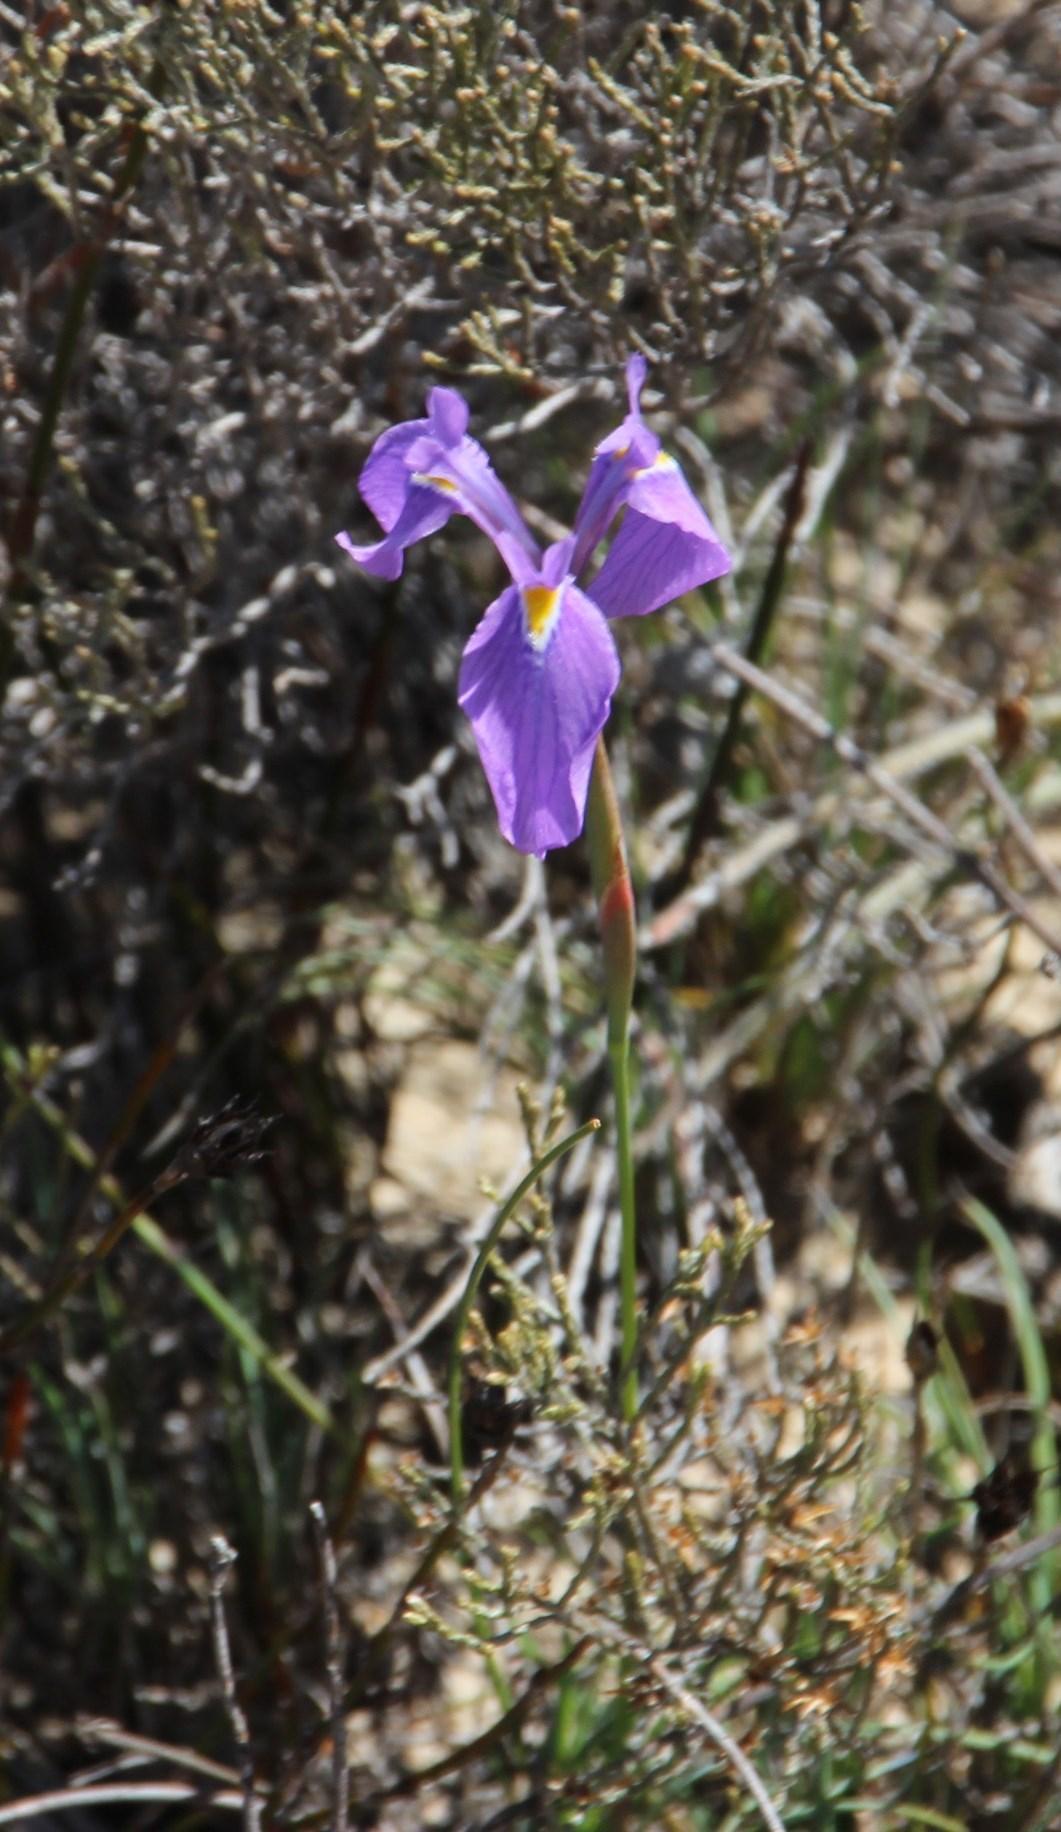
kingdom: Plantae
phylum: Tracheophyta
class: Liliopsida
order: Asparagales
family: Iridaceae
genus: Moraea
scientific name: Moraea tripetala
